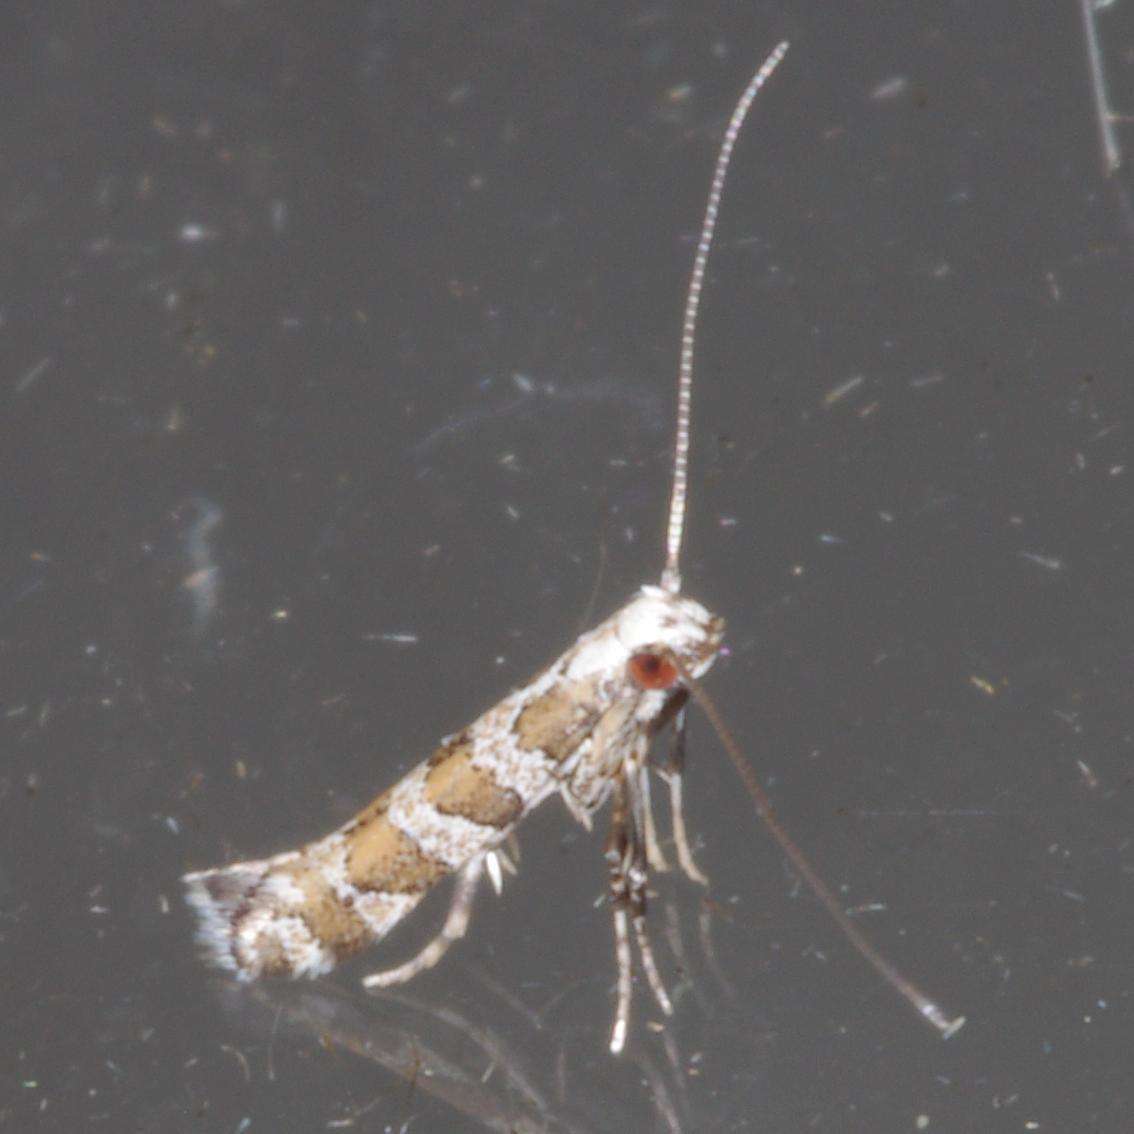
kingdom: Animalia
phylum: Arthropoda
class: Insecta
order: Lepidoptera
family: Gracillariidae
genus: Acrocercops
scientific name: Acrocercops irrorata
